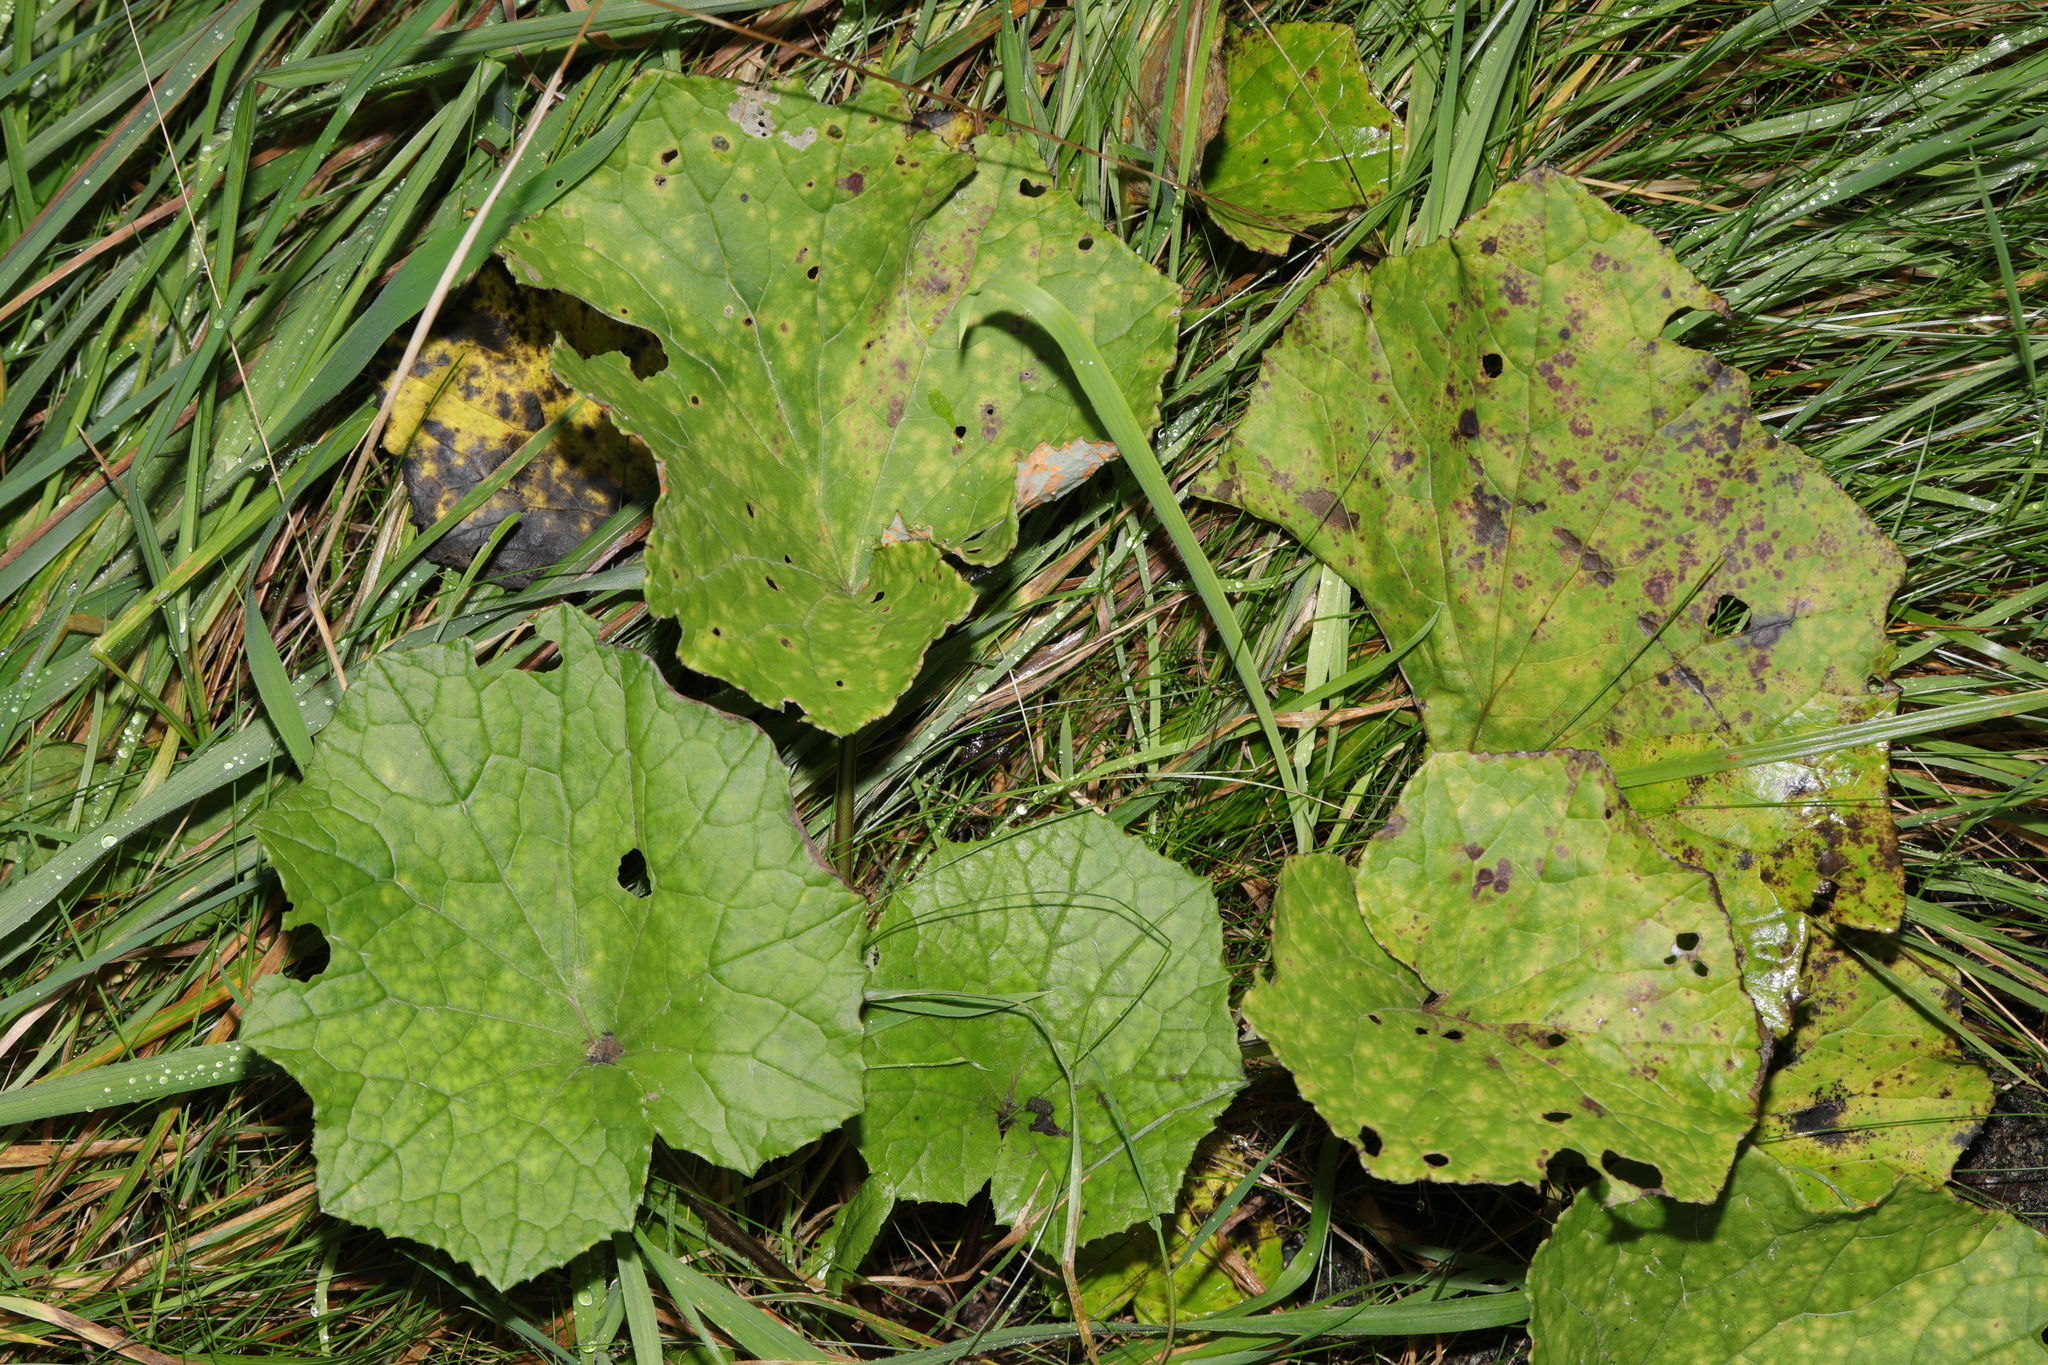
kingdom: Plantae
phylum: Tracheophyta
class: Magnoliopsida
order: Asterales
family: Asteraceae
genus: Tussilago
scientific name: Tussilago farfara
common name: Coltsfoot
